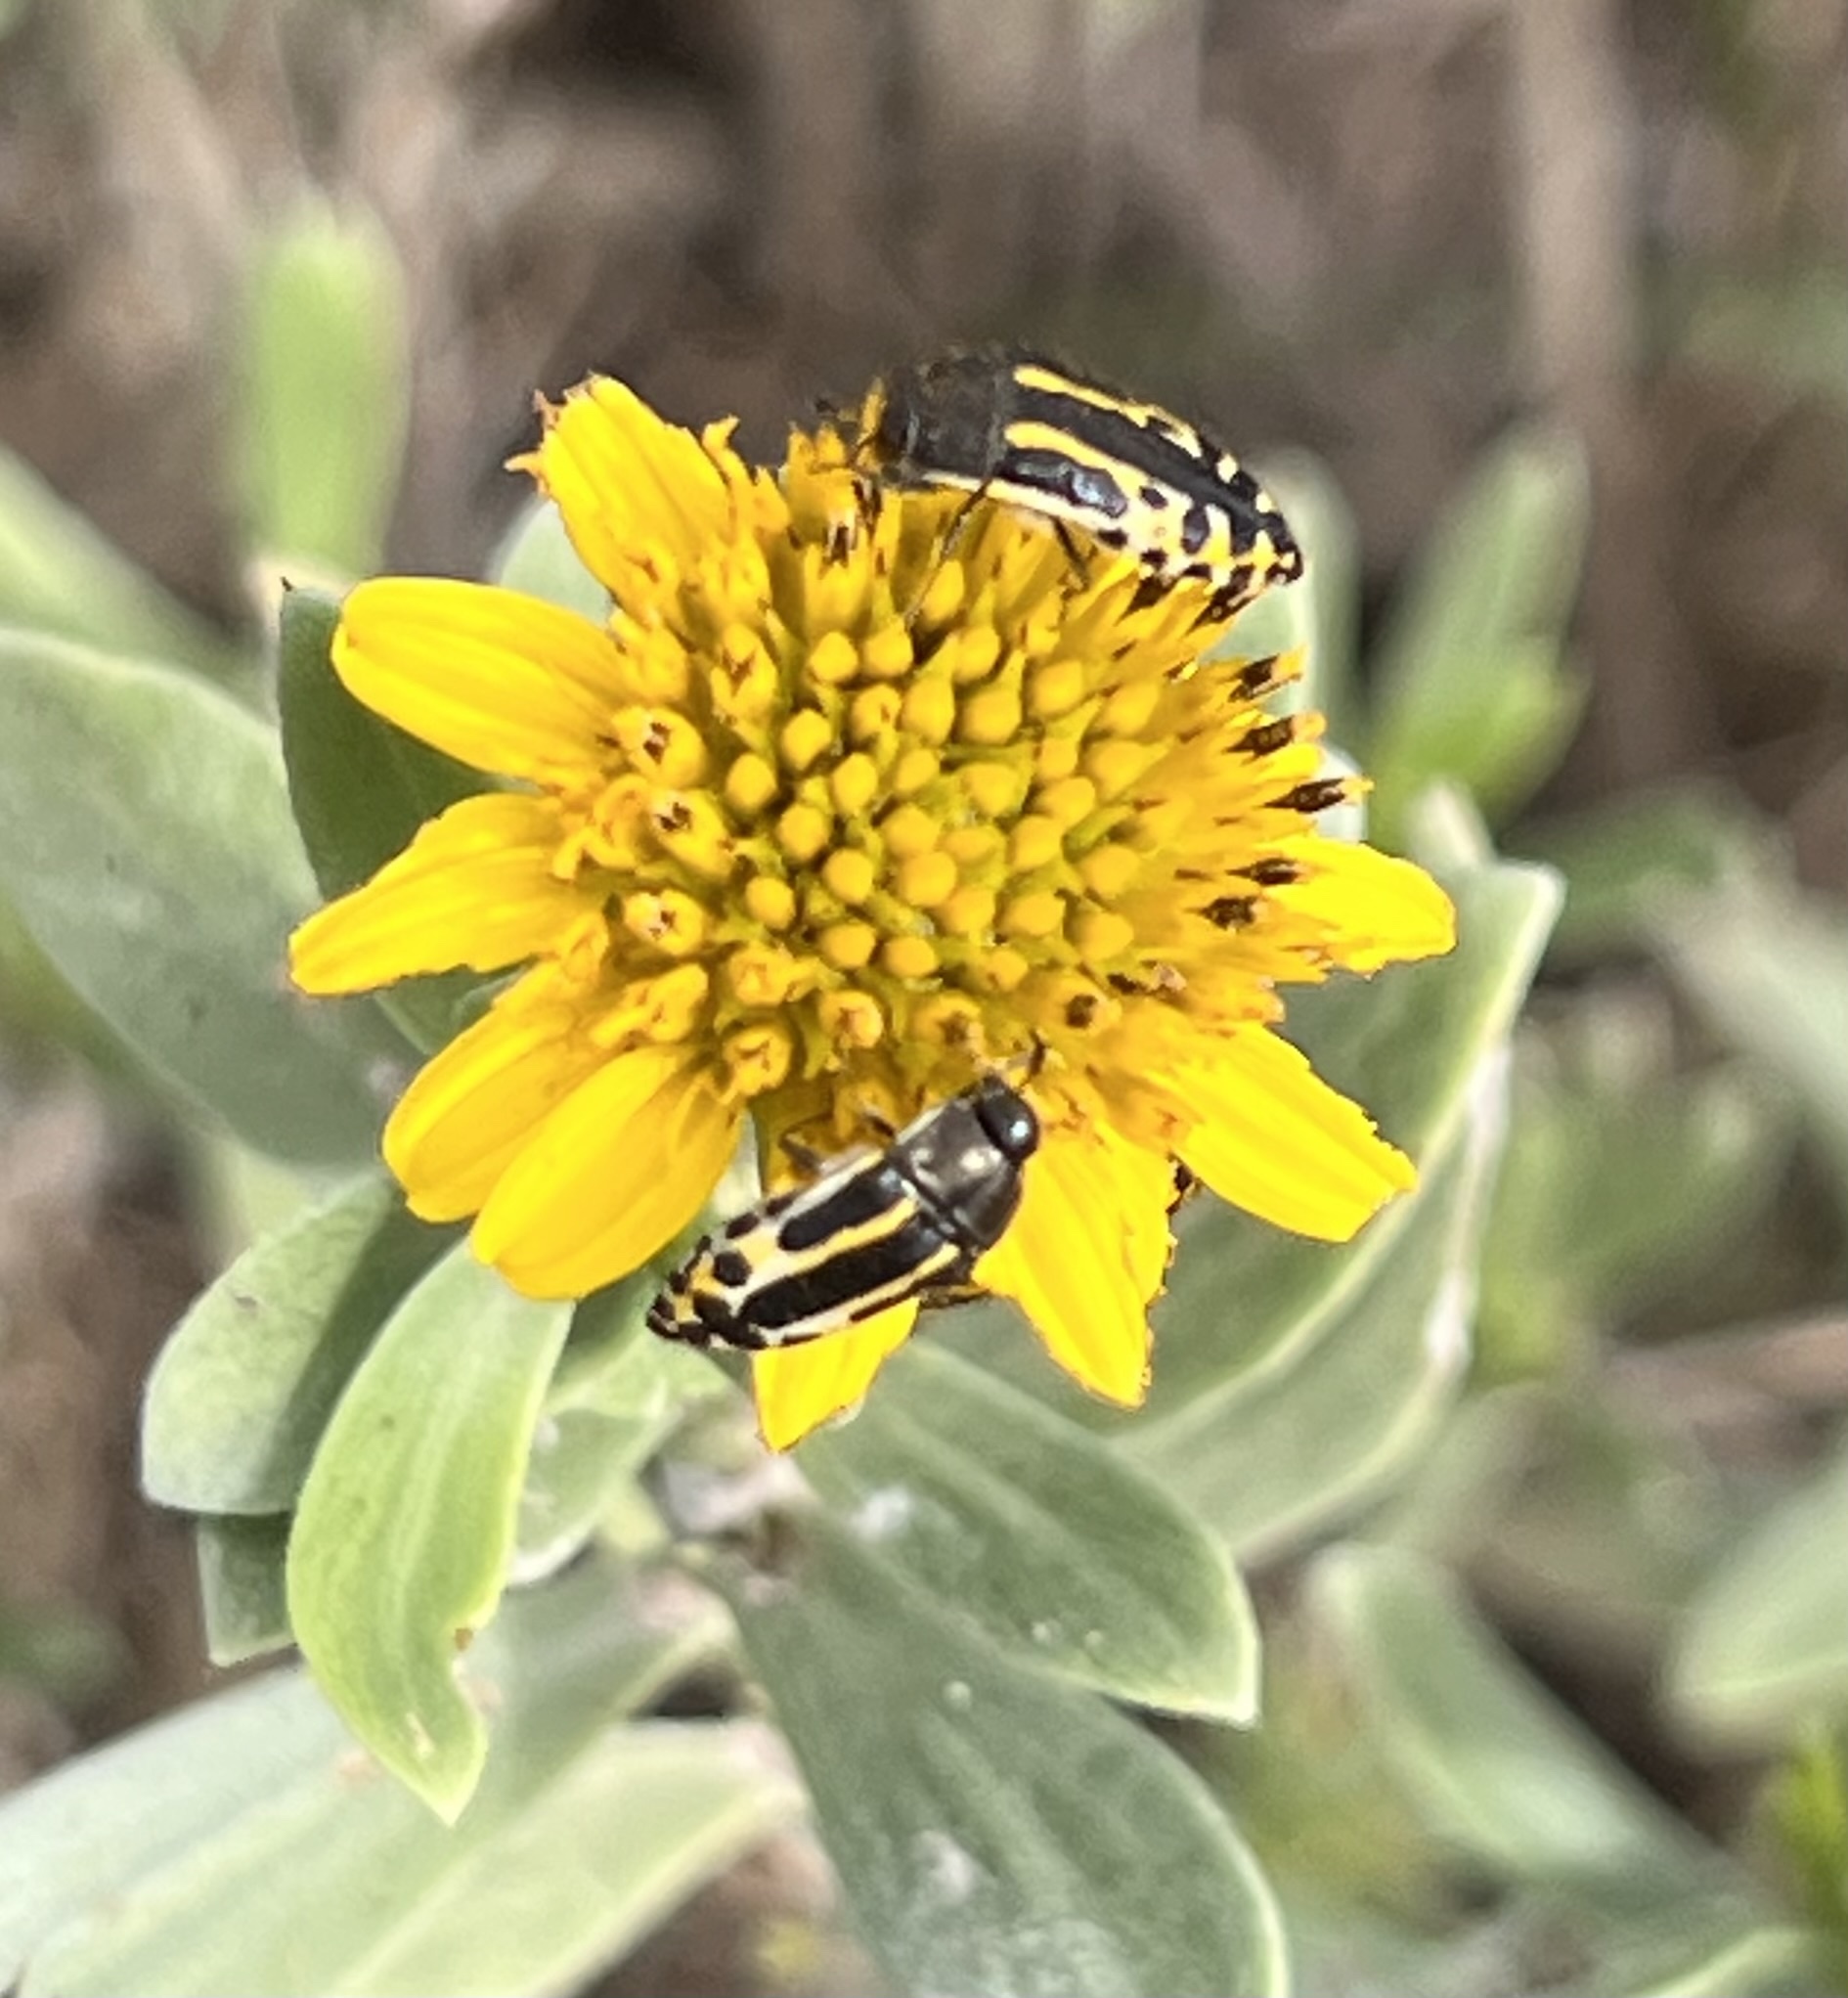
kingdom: Animalia
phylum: Arthropoda
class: Insecta
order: Coleoptera
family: Buprestidae
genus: Acmaeodera
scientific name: Acmaeodera scalaris
